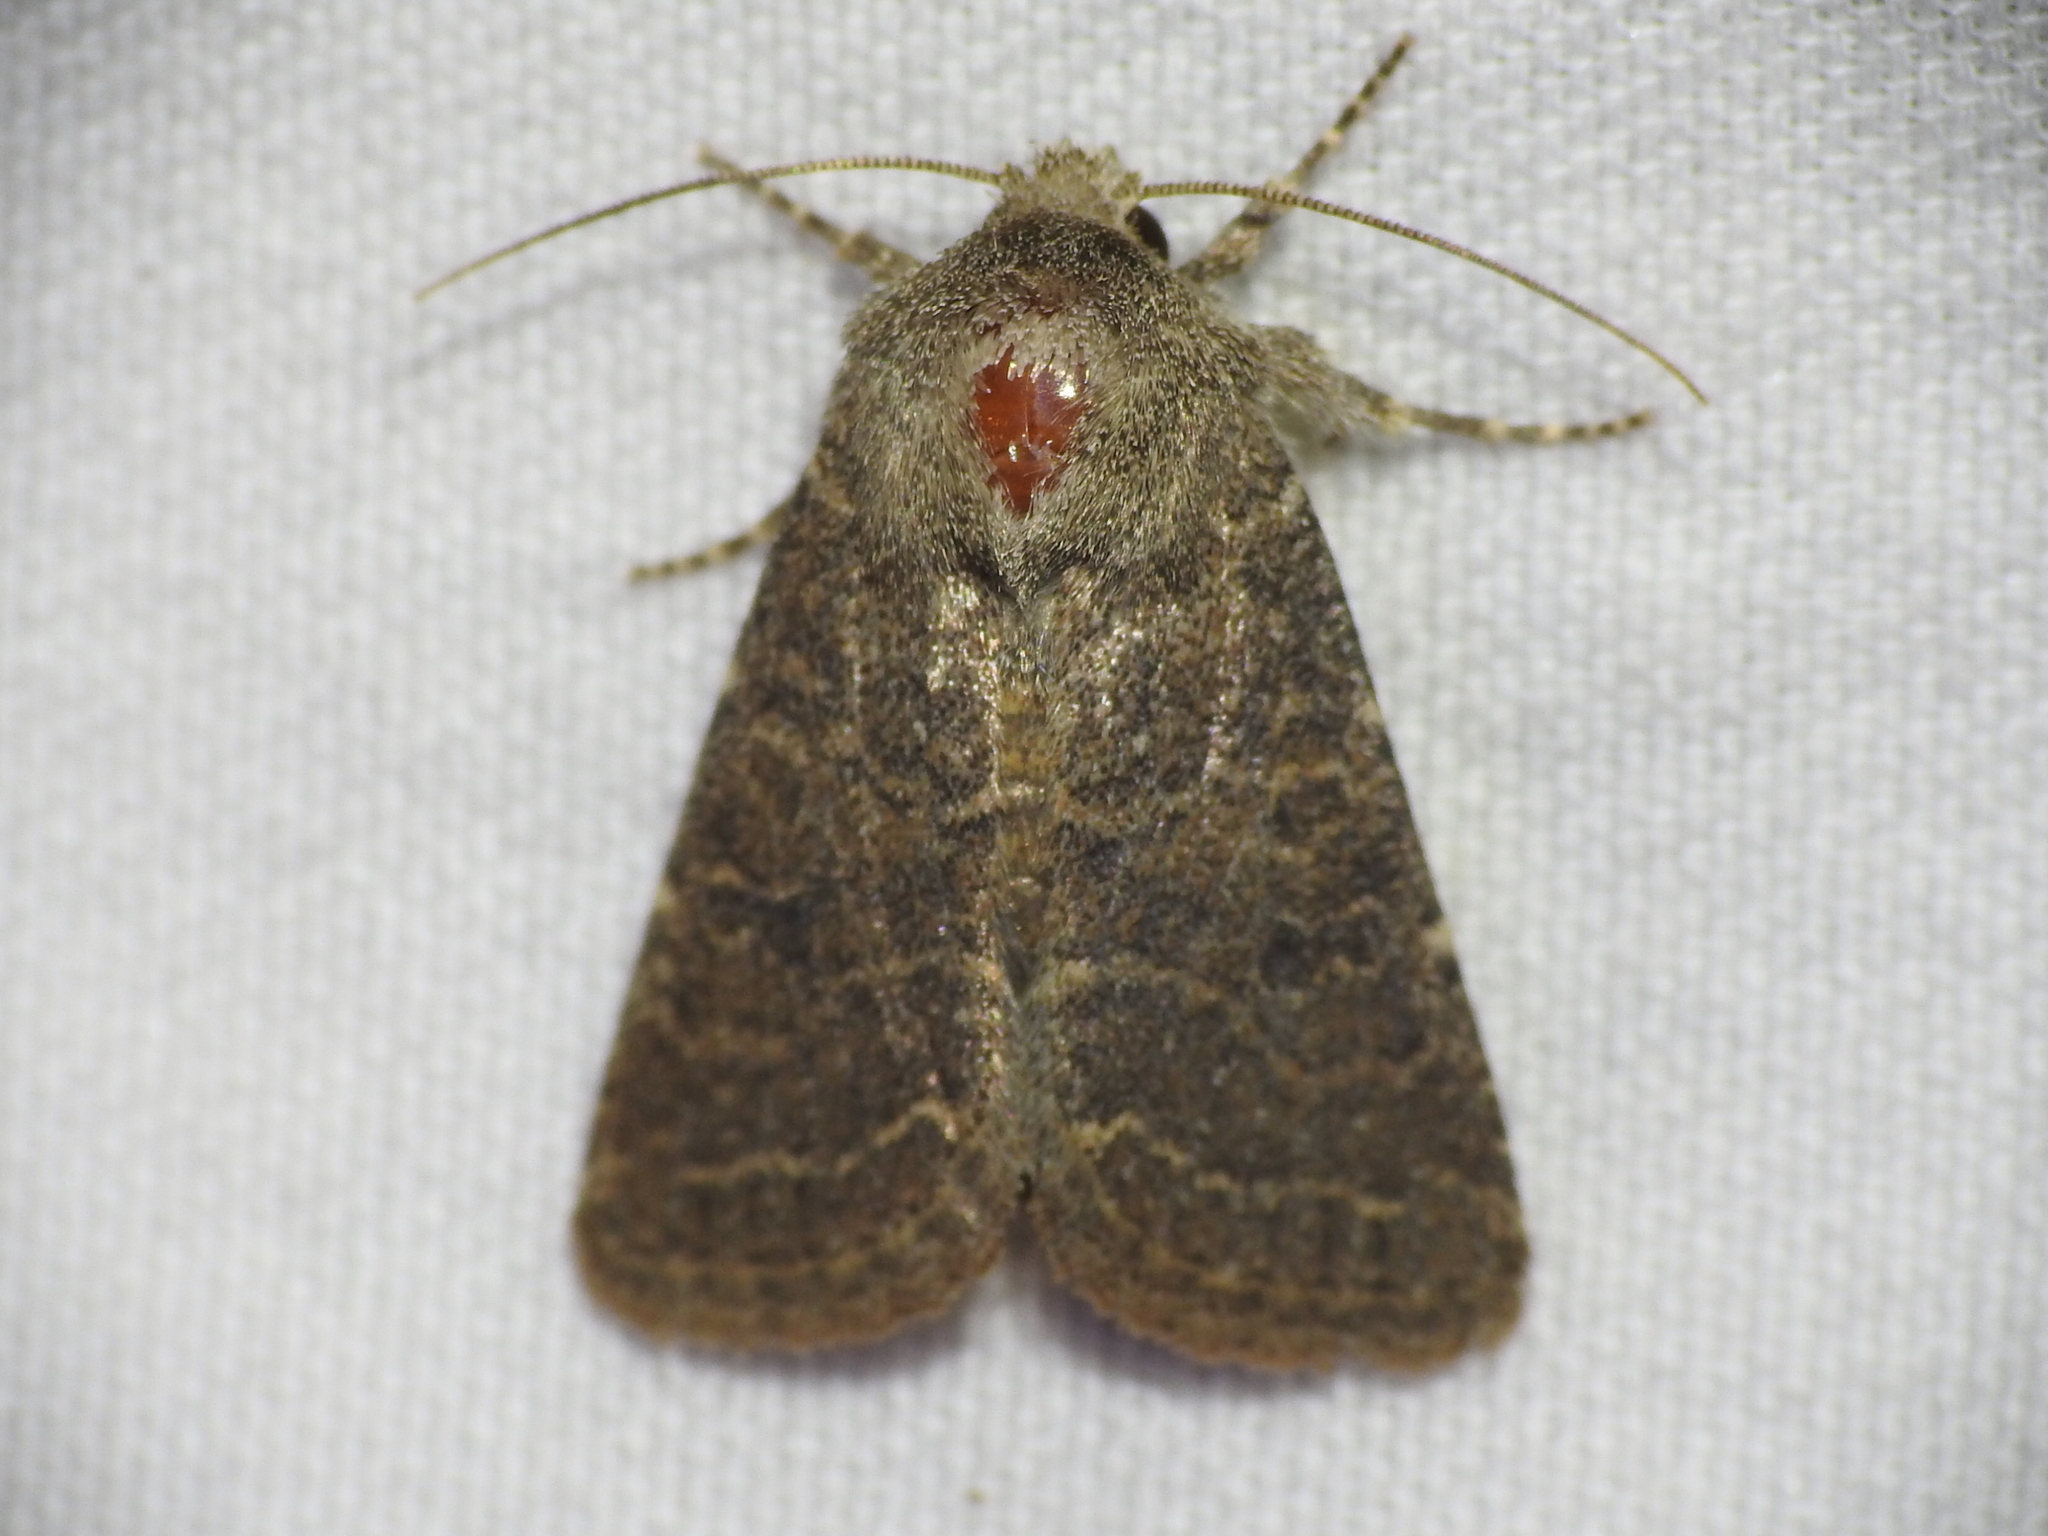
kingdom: Animalia
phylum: Arthropoda
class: Insecta
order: Lepidoptera
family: Noctuidae
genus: Trichopolia
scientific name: Trichopolia
